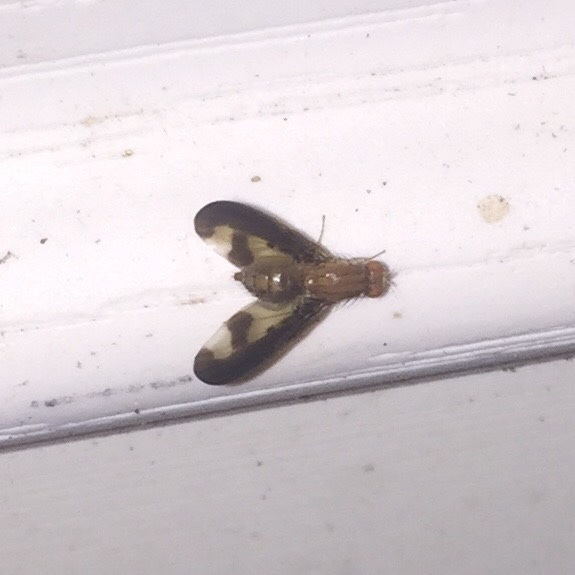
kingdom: Animalia
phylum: Arthropoda
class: Insecta
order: Diptera
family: Pallopteridae
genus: Toxonevra
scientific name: Toxonevra superba
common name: Antlered flutter fly
